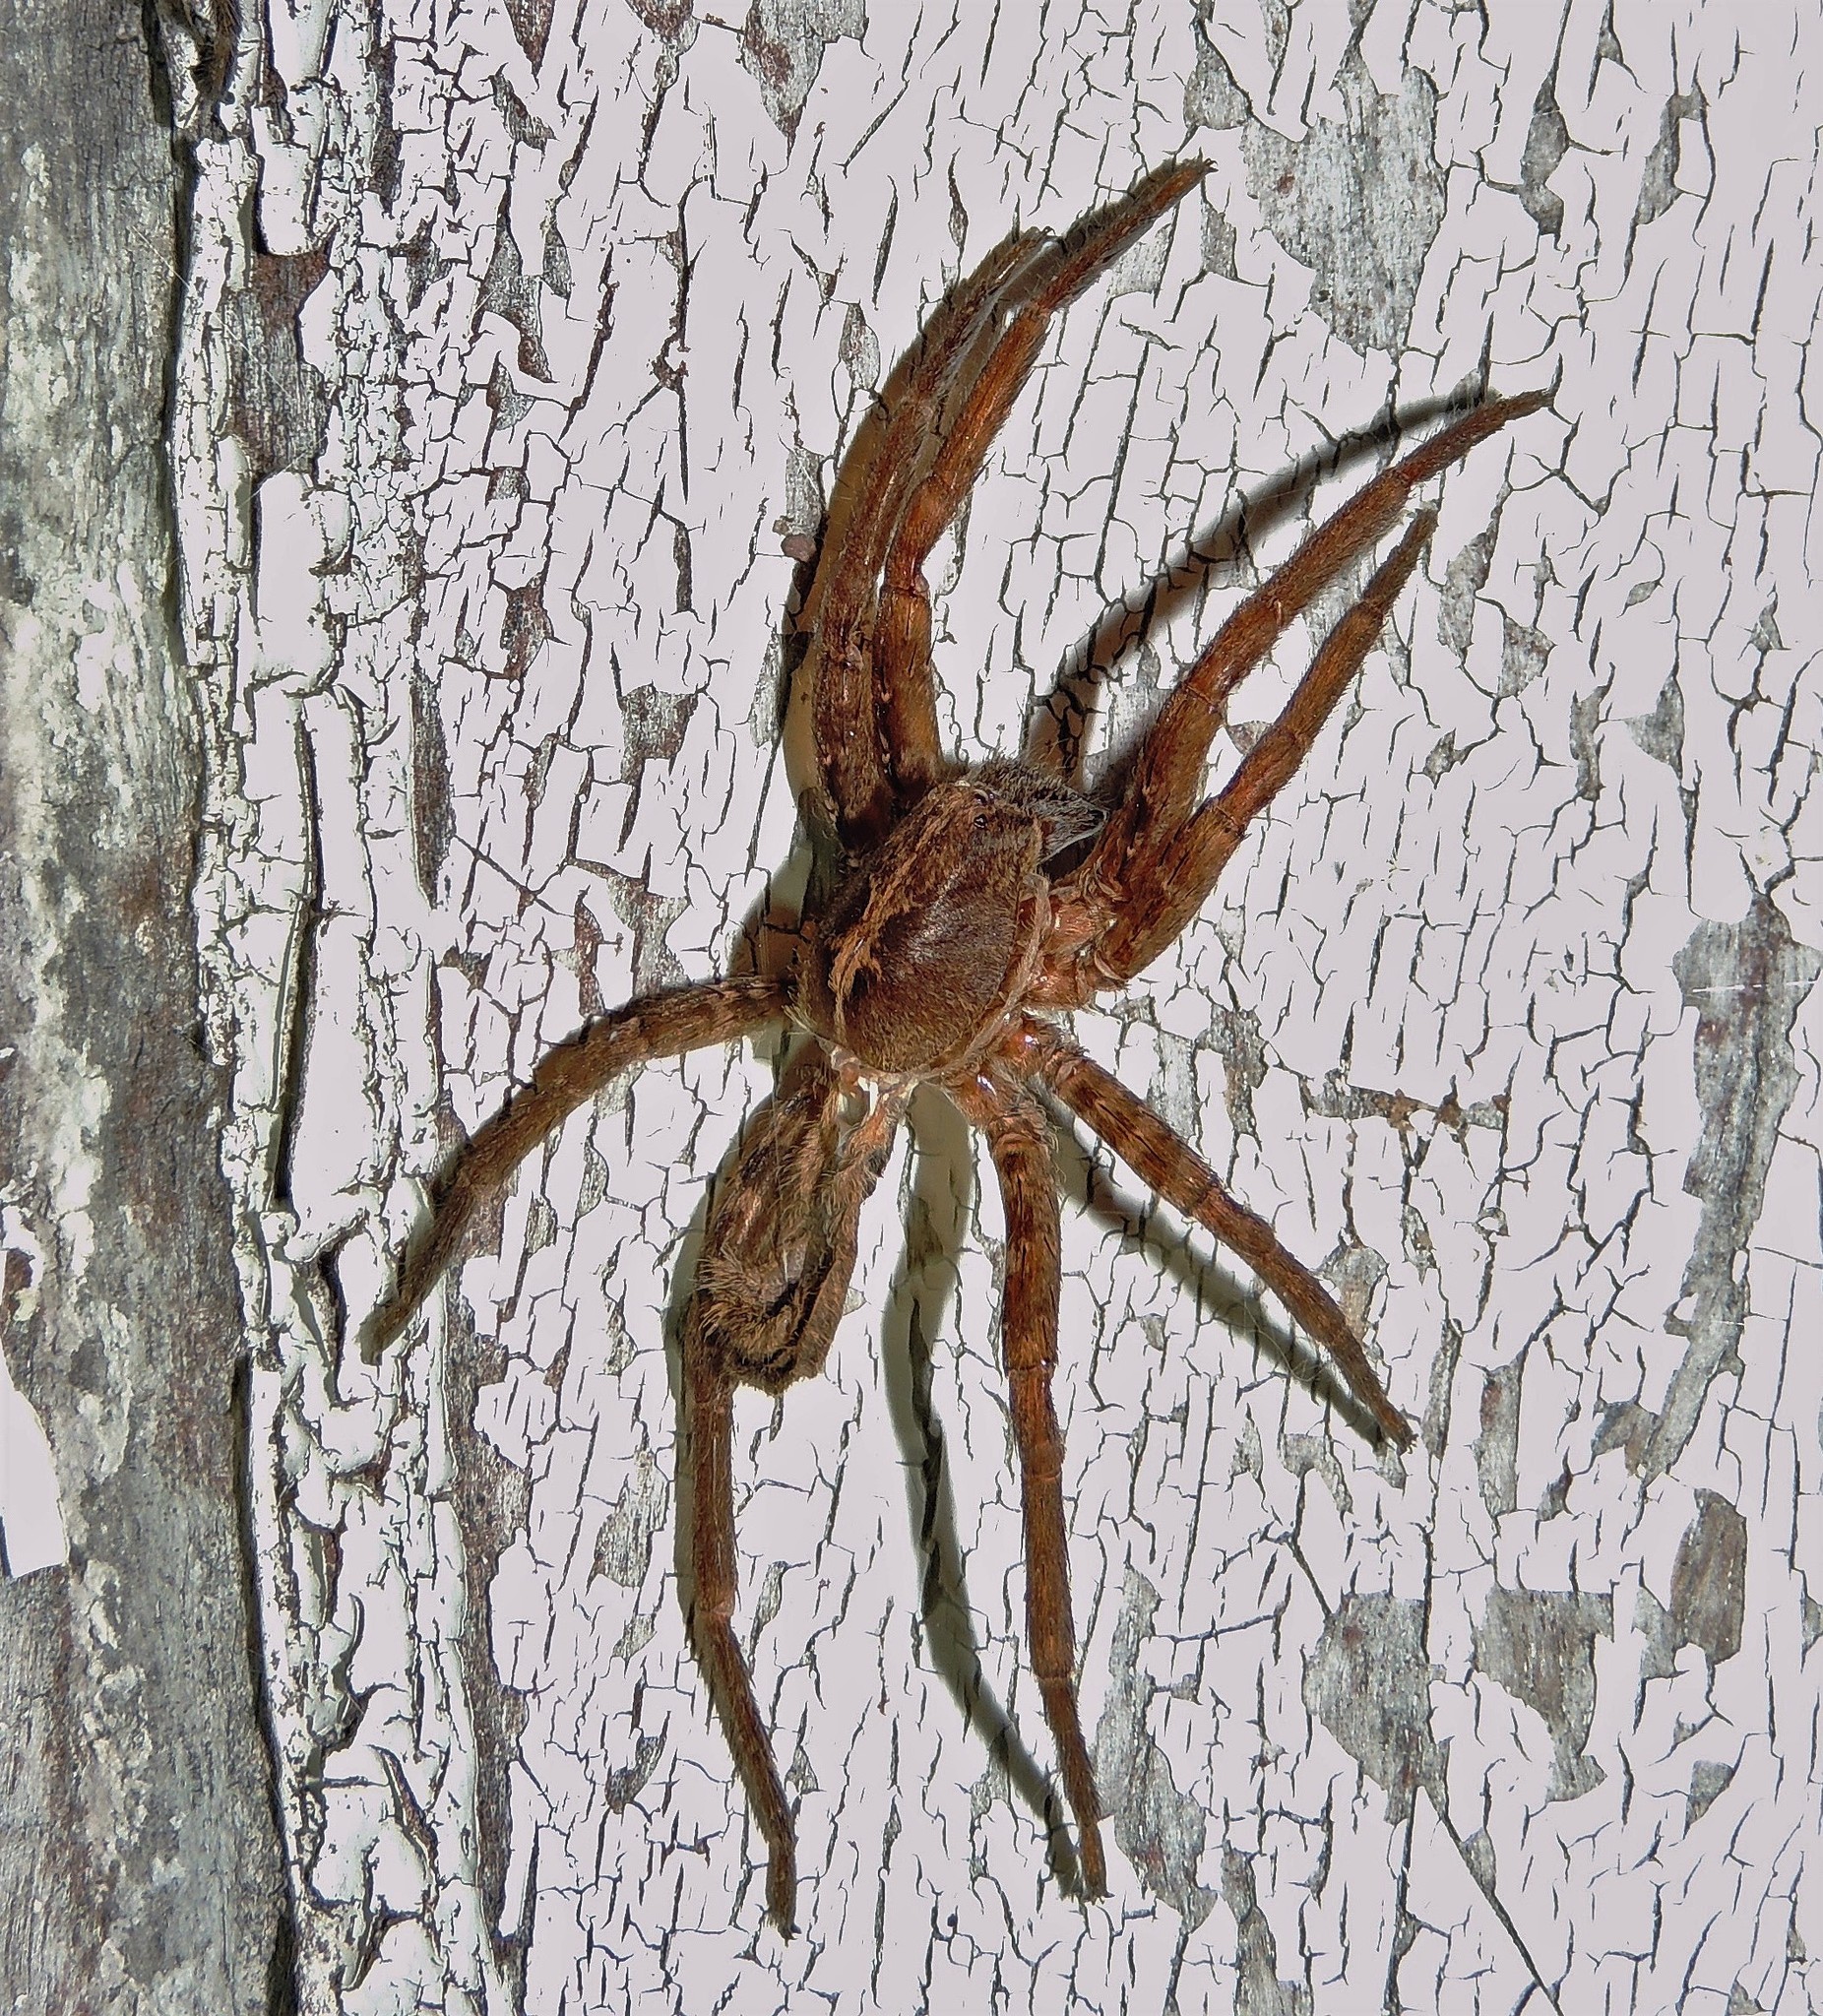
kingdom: Animalia
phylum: Arthropoda
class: Arachnida
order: Araneae
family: Ctenidae
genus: Parabatinga
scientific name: Parabatinga brevipes
